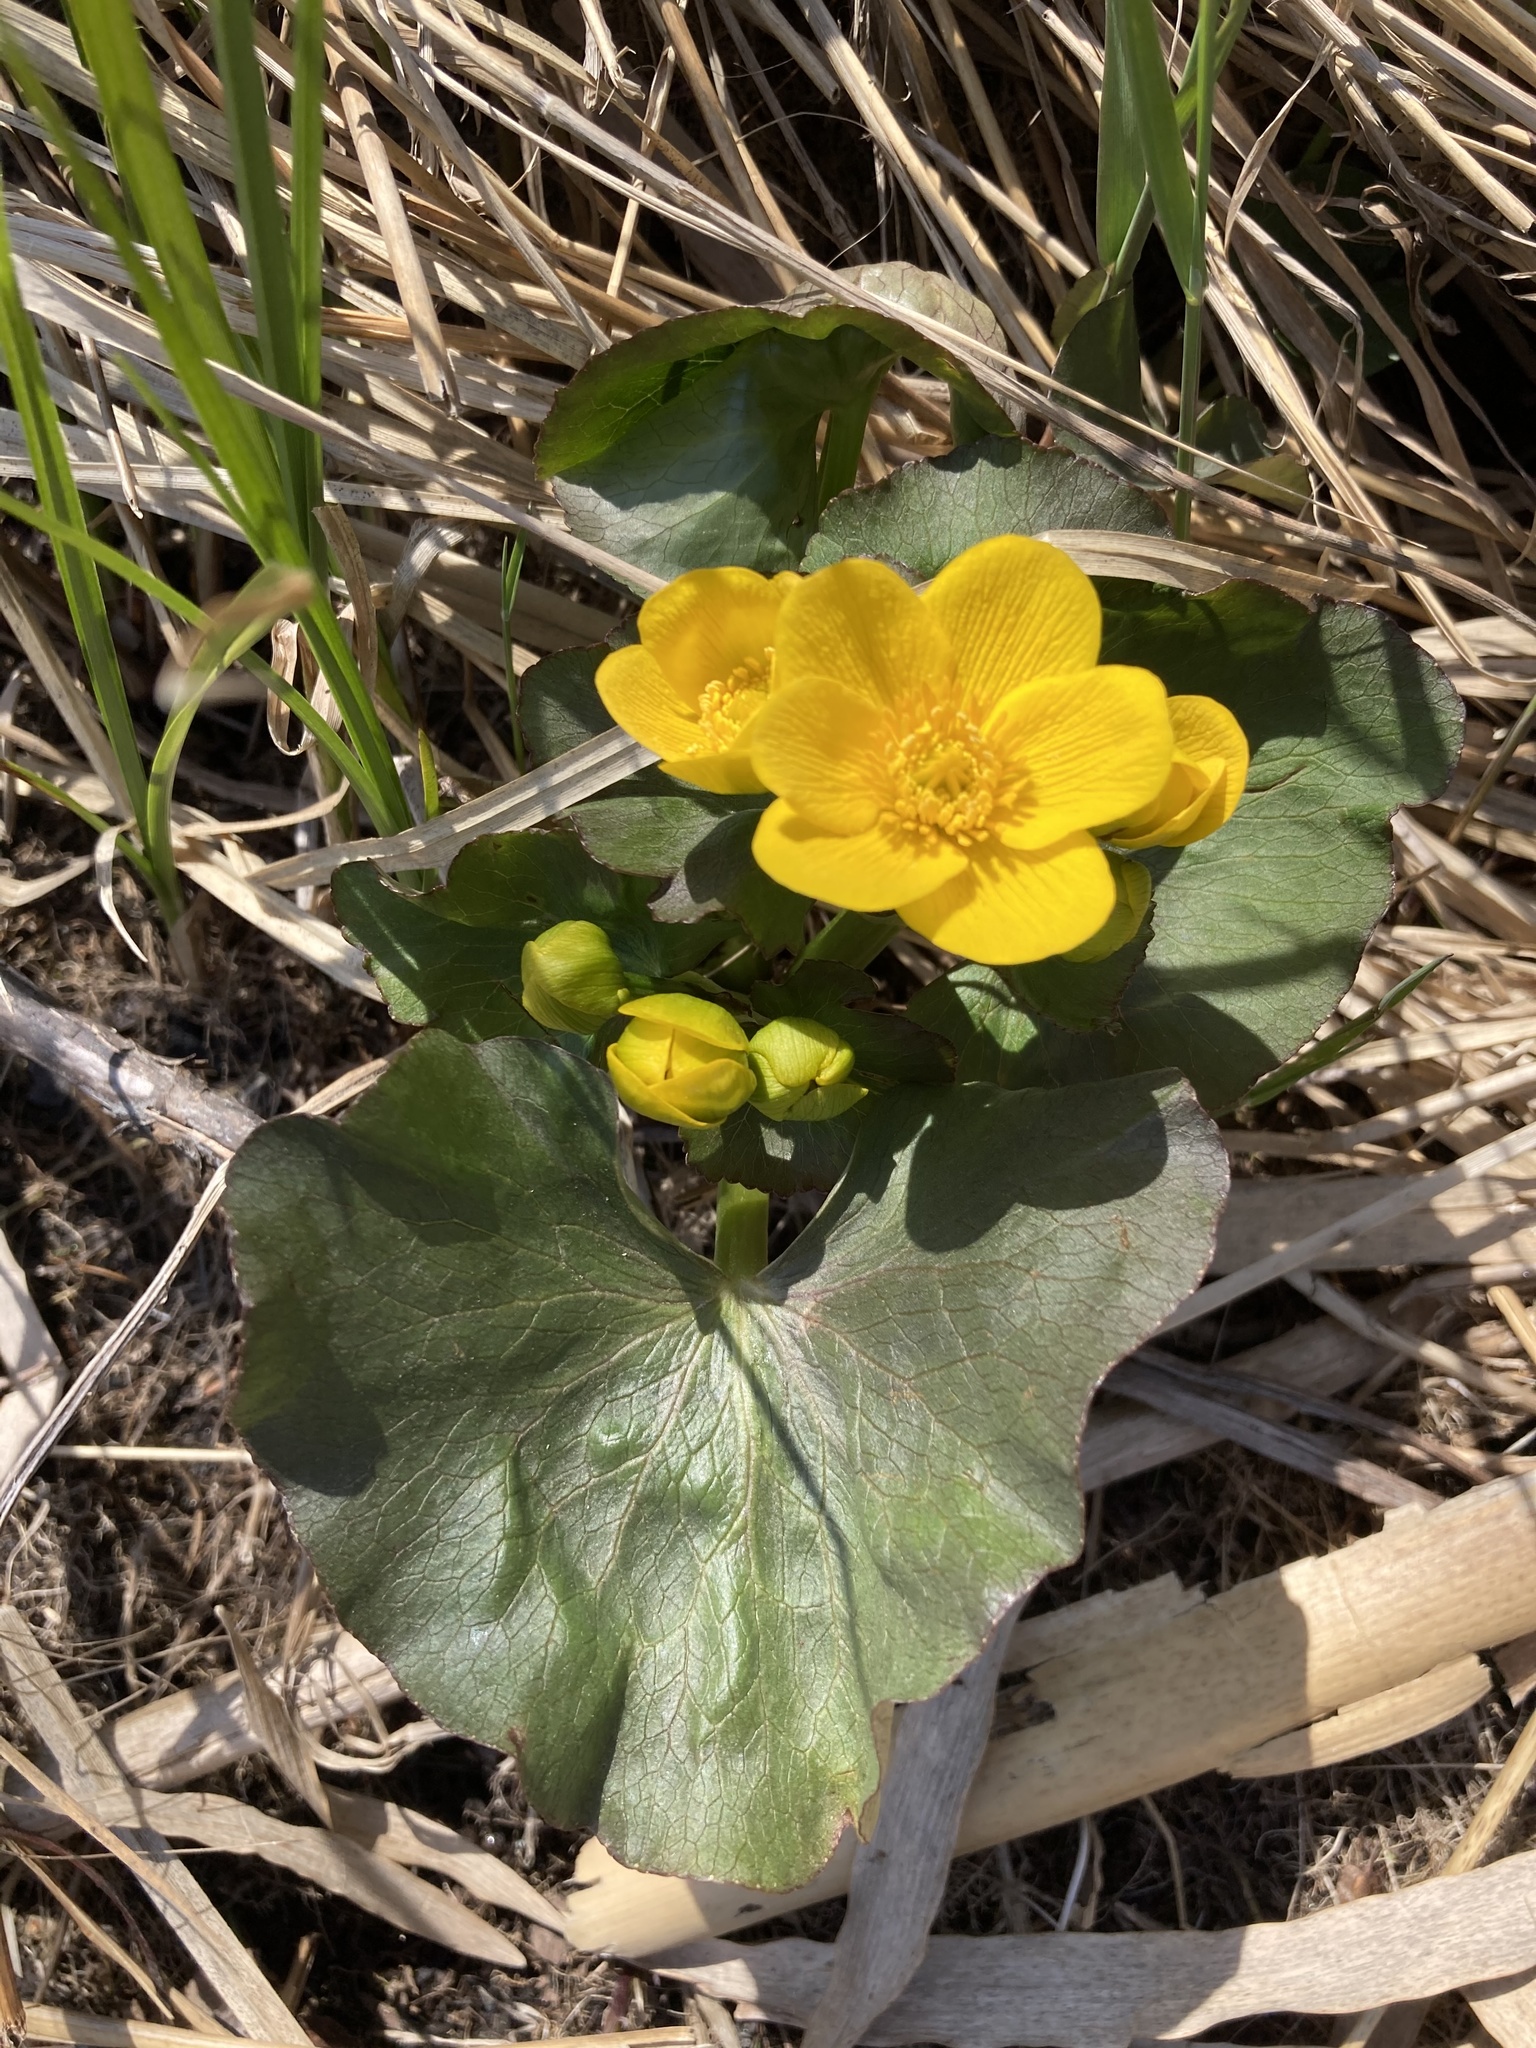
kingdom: Plantae
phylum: Tracheophyta
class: Magnoliopsida
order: Ranunculales
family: Ranunculaceae
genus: Caltha
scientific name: Caltha palustris
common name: Marsh marigold
